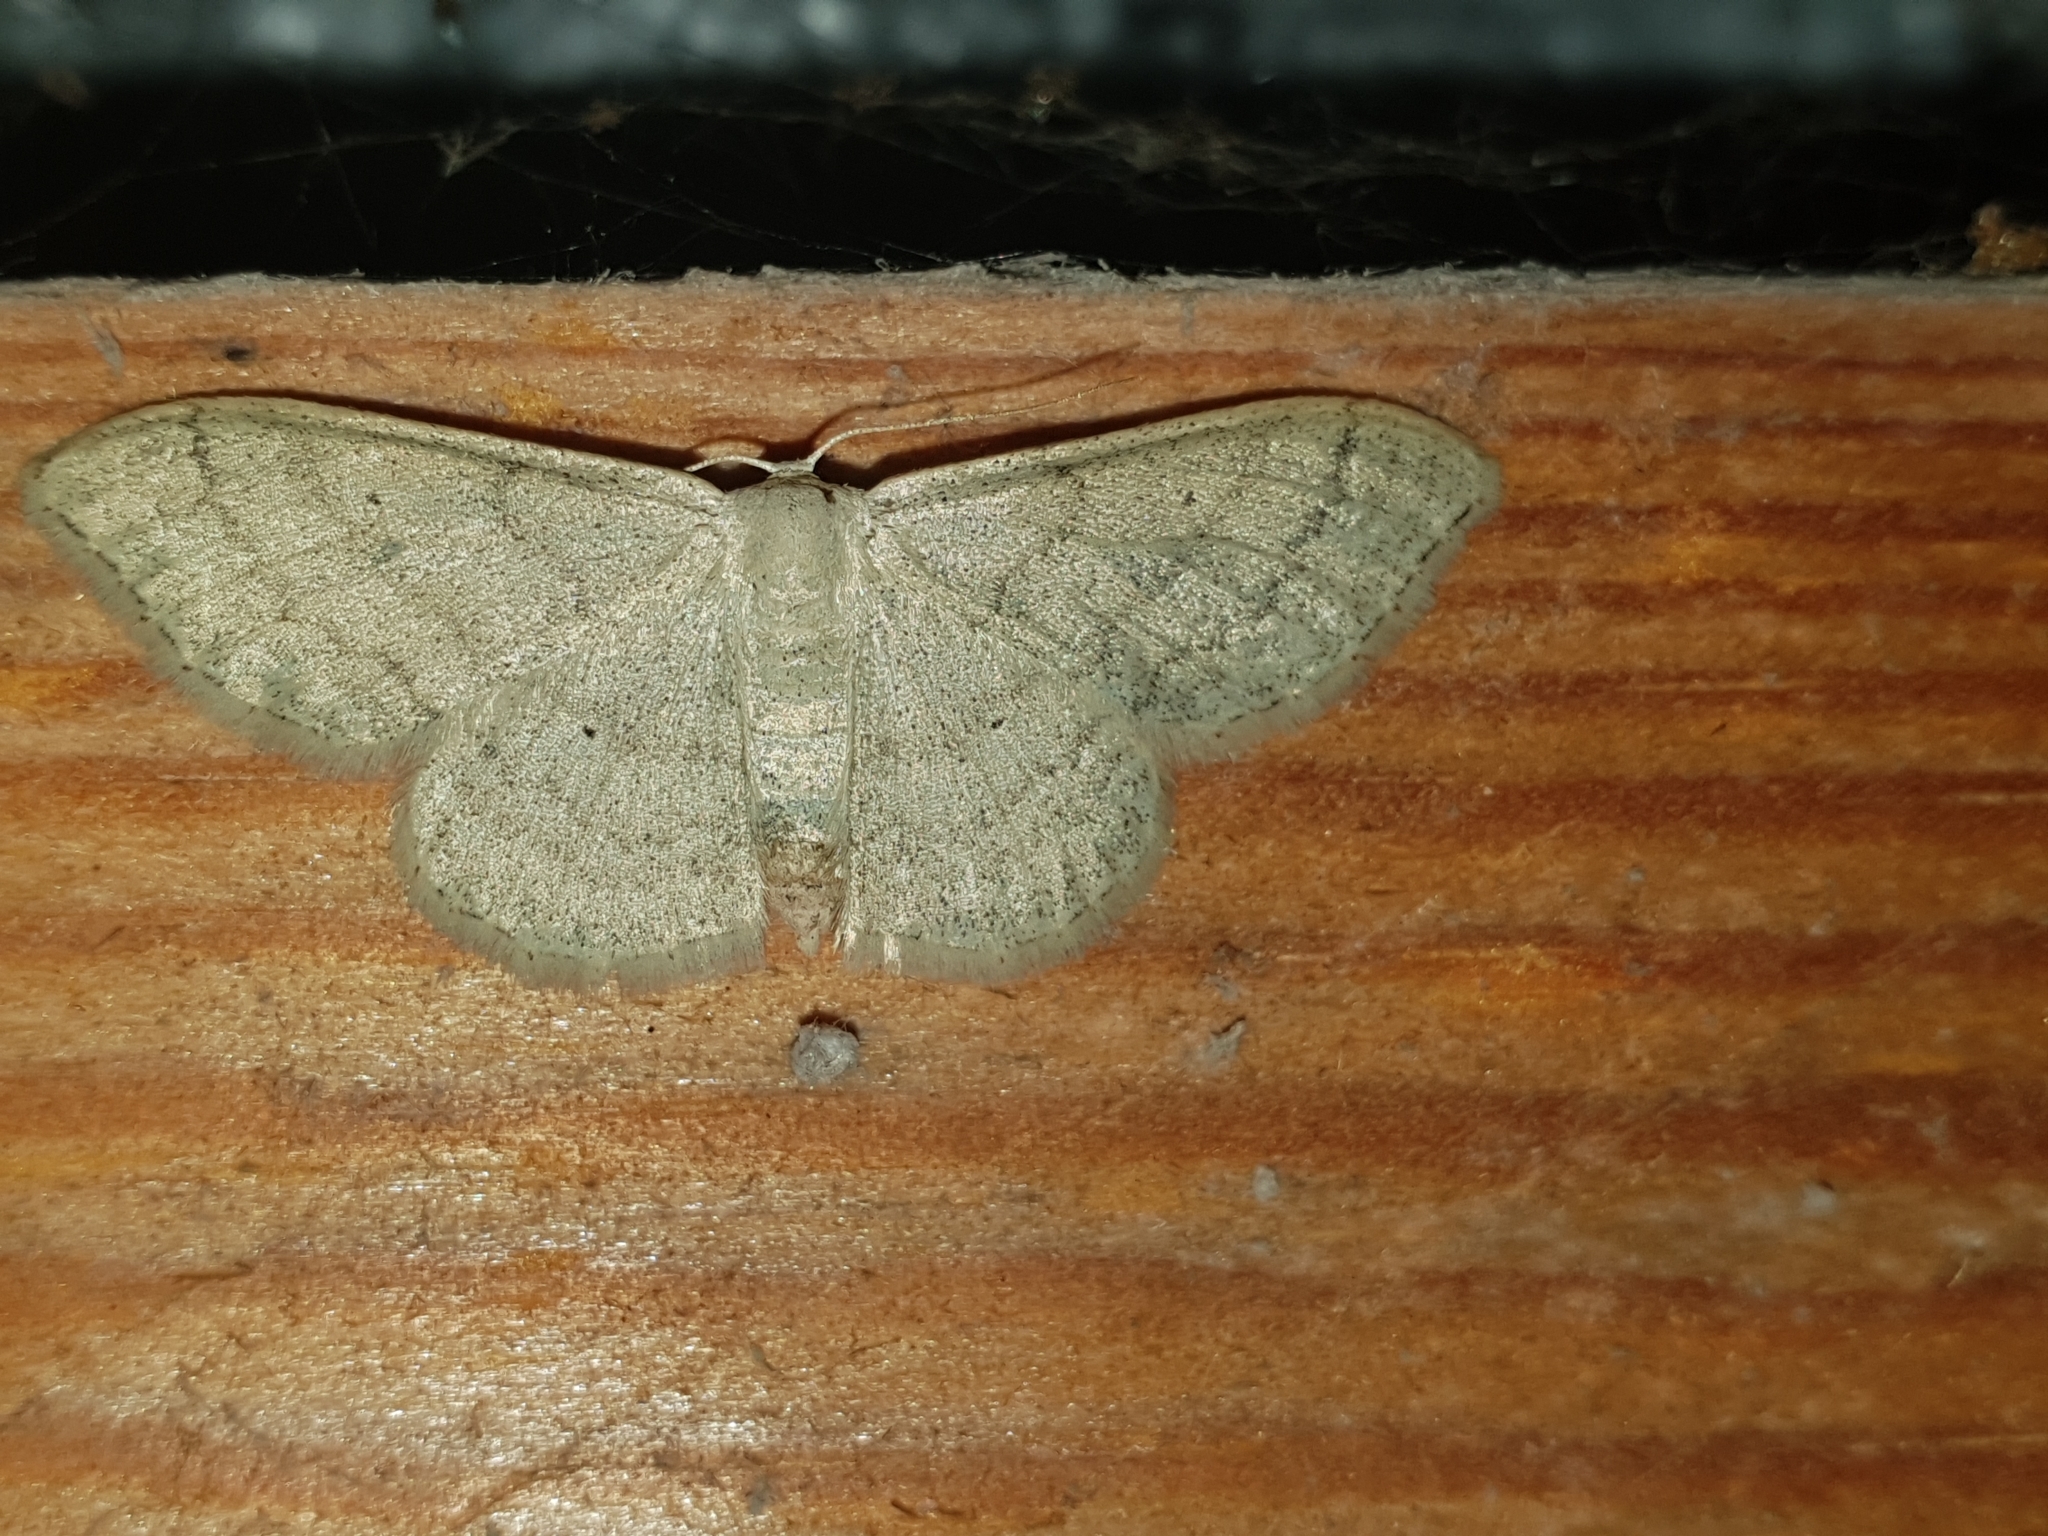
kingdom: Animalia
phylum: Arthropoda
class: Insecta
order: Lepidoptera
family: Geometridae
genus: Idaea
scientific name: Idaea straminata
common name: Plain wave
